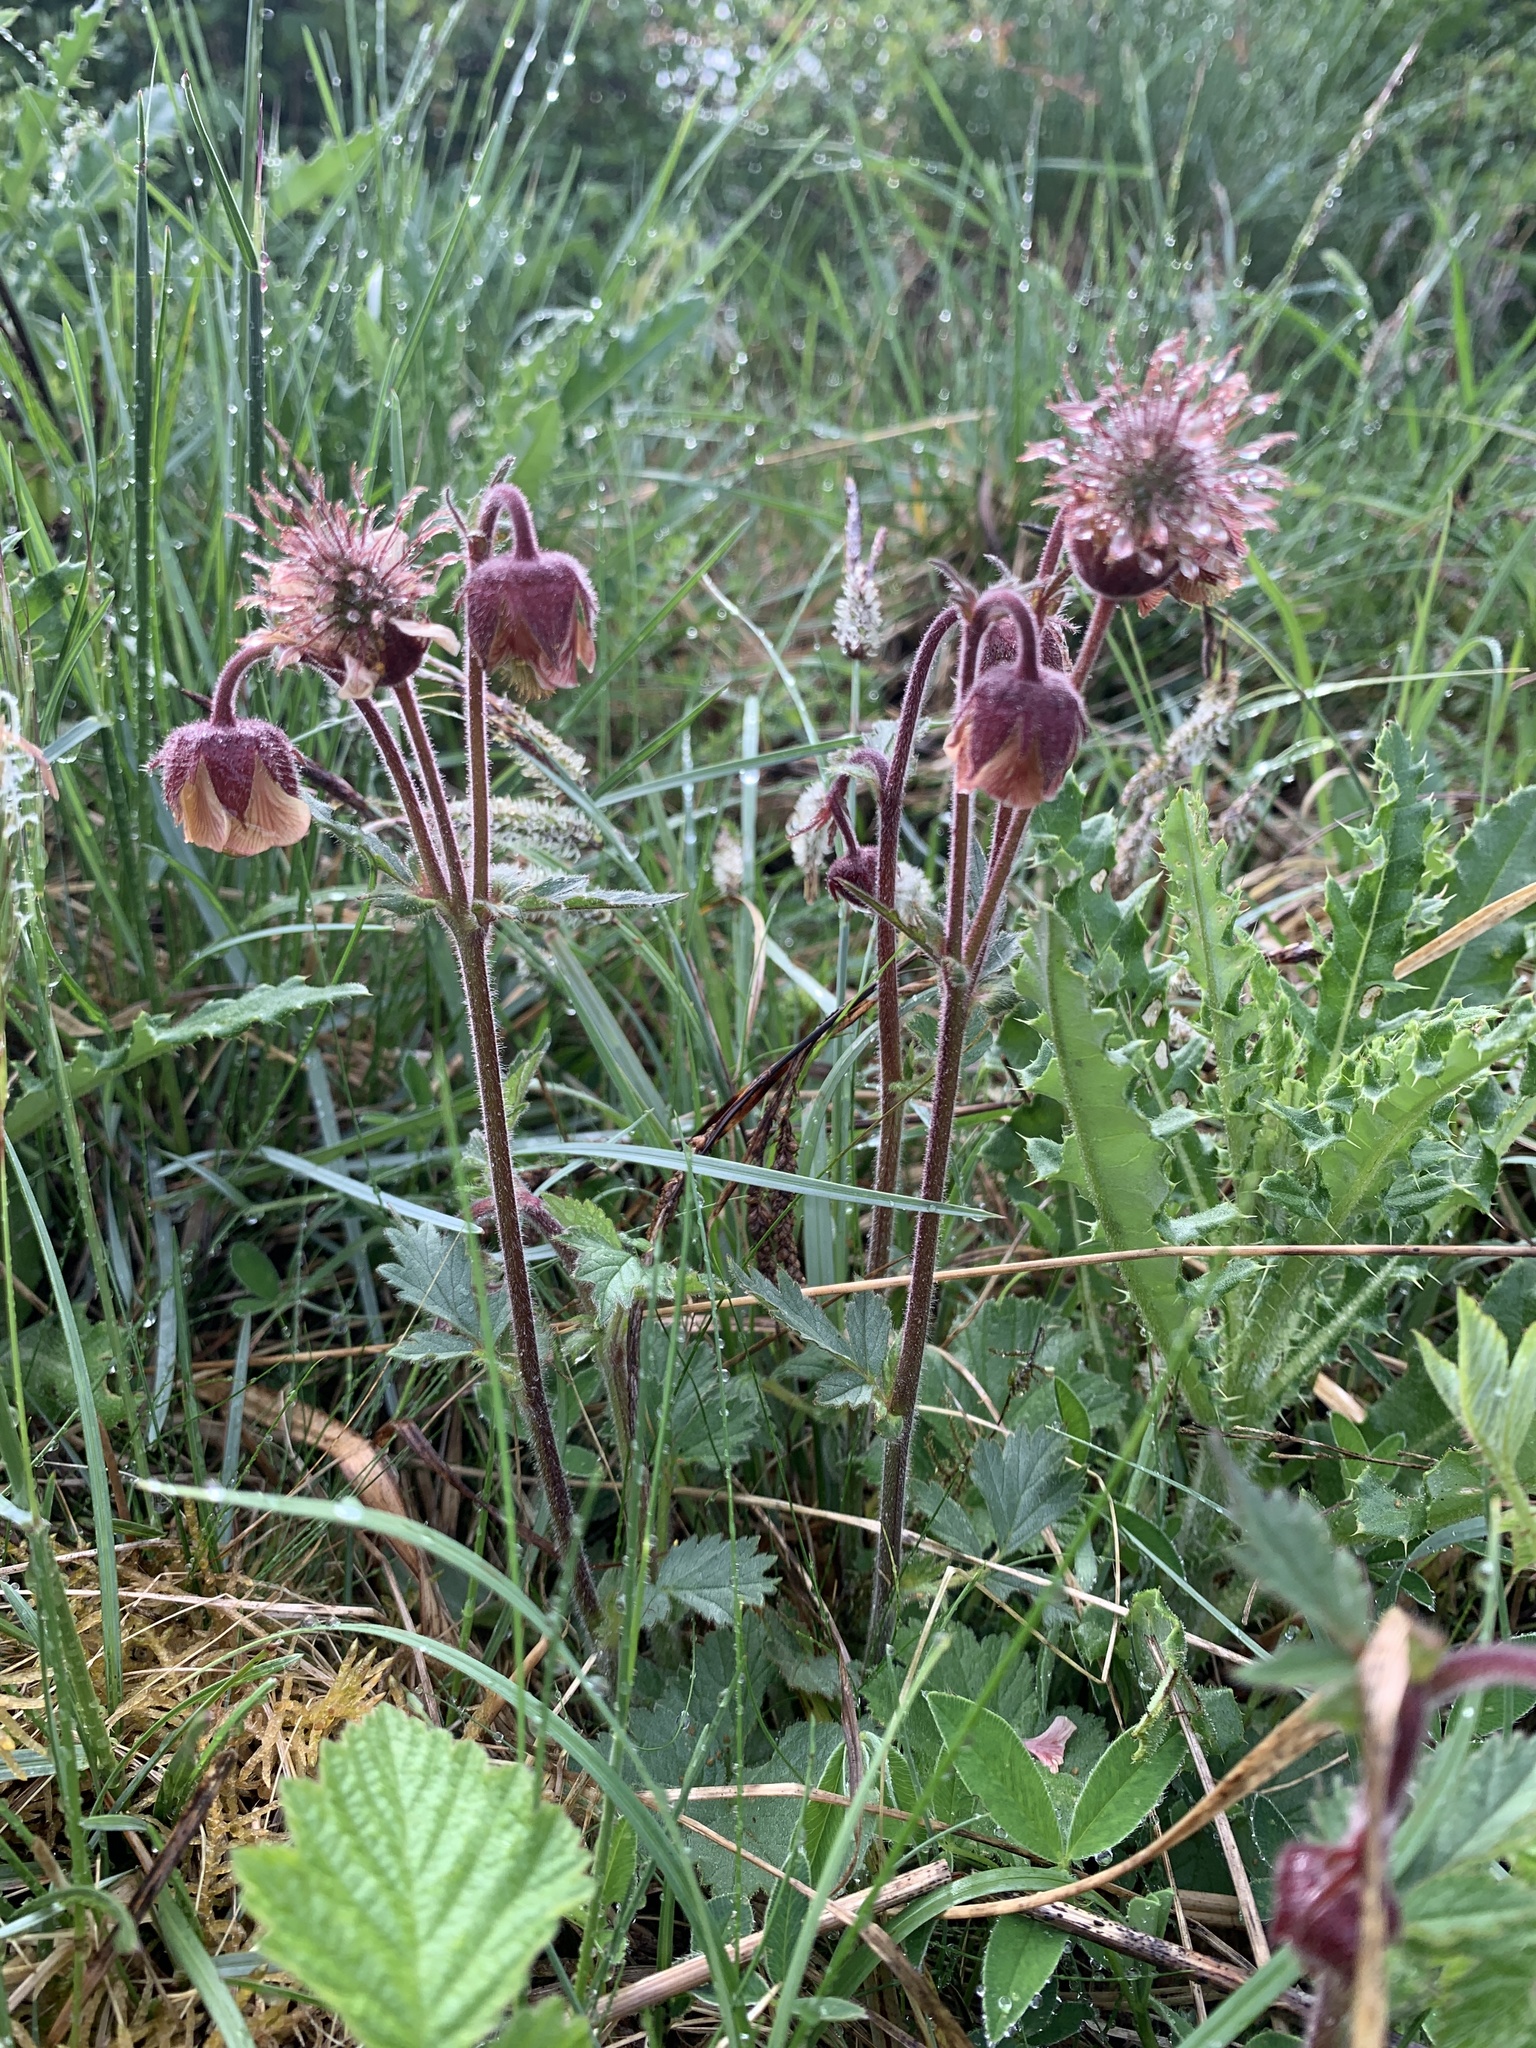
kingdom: Plantae
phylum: Tracheophyta
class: Magnoliopsida
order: Rosales
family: Rosaceae
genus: Geum
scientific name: Geum rivale
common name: Water avens
